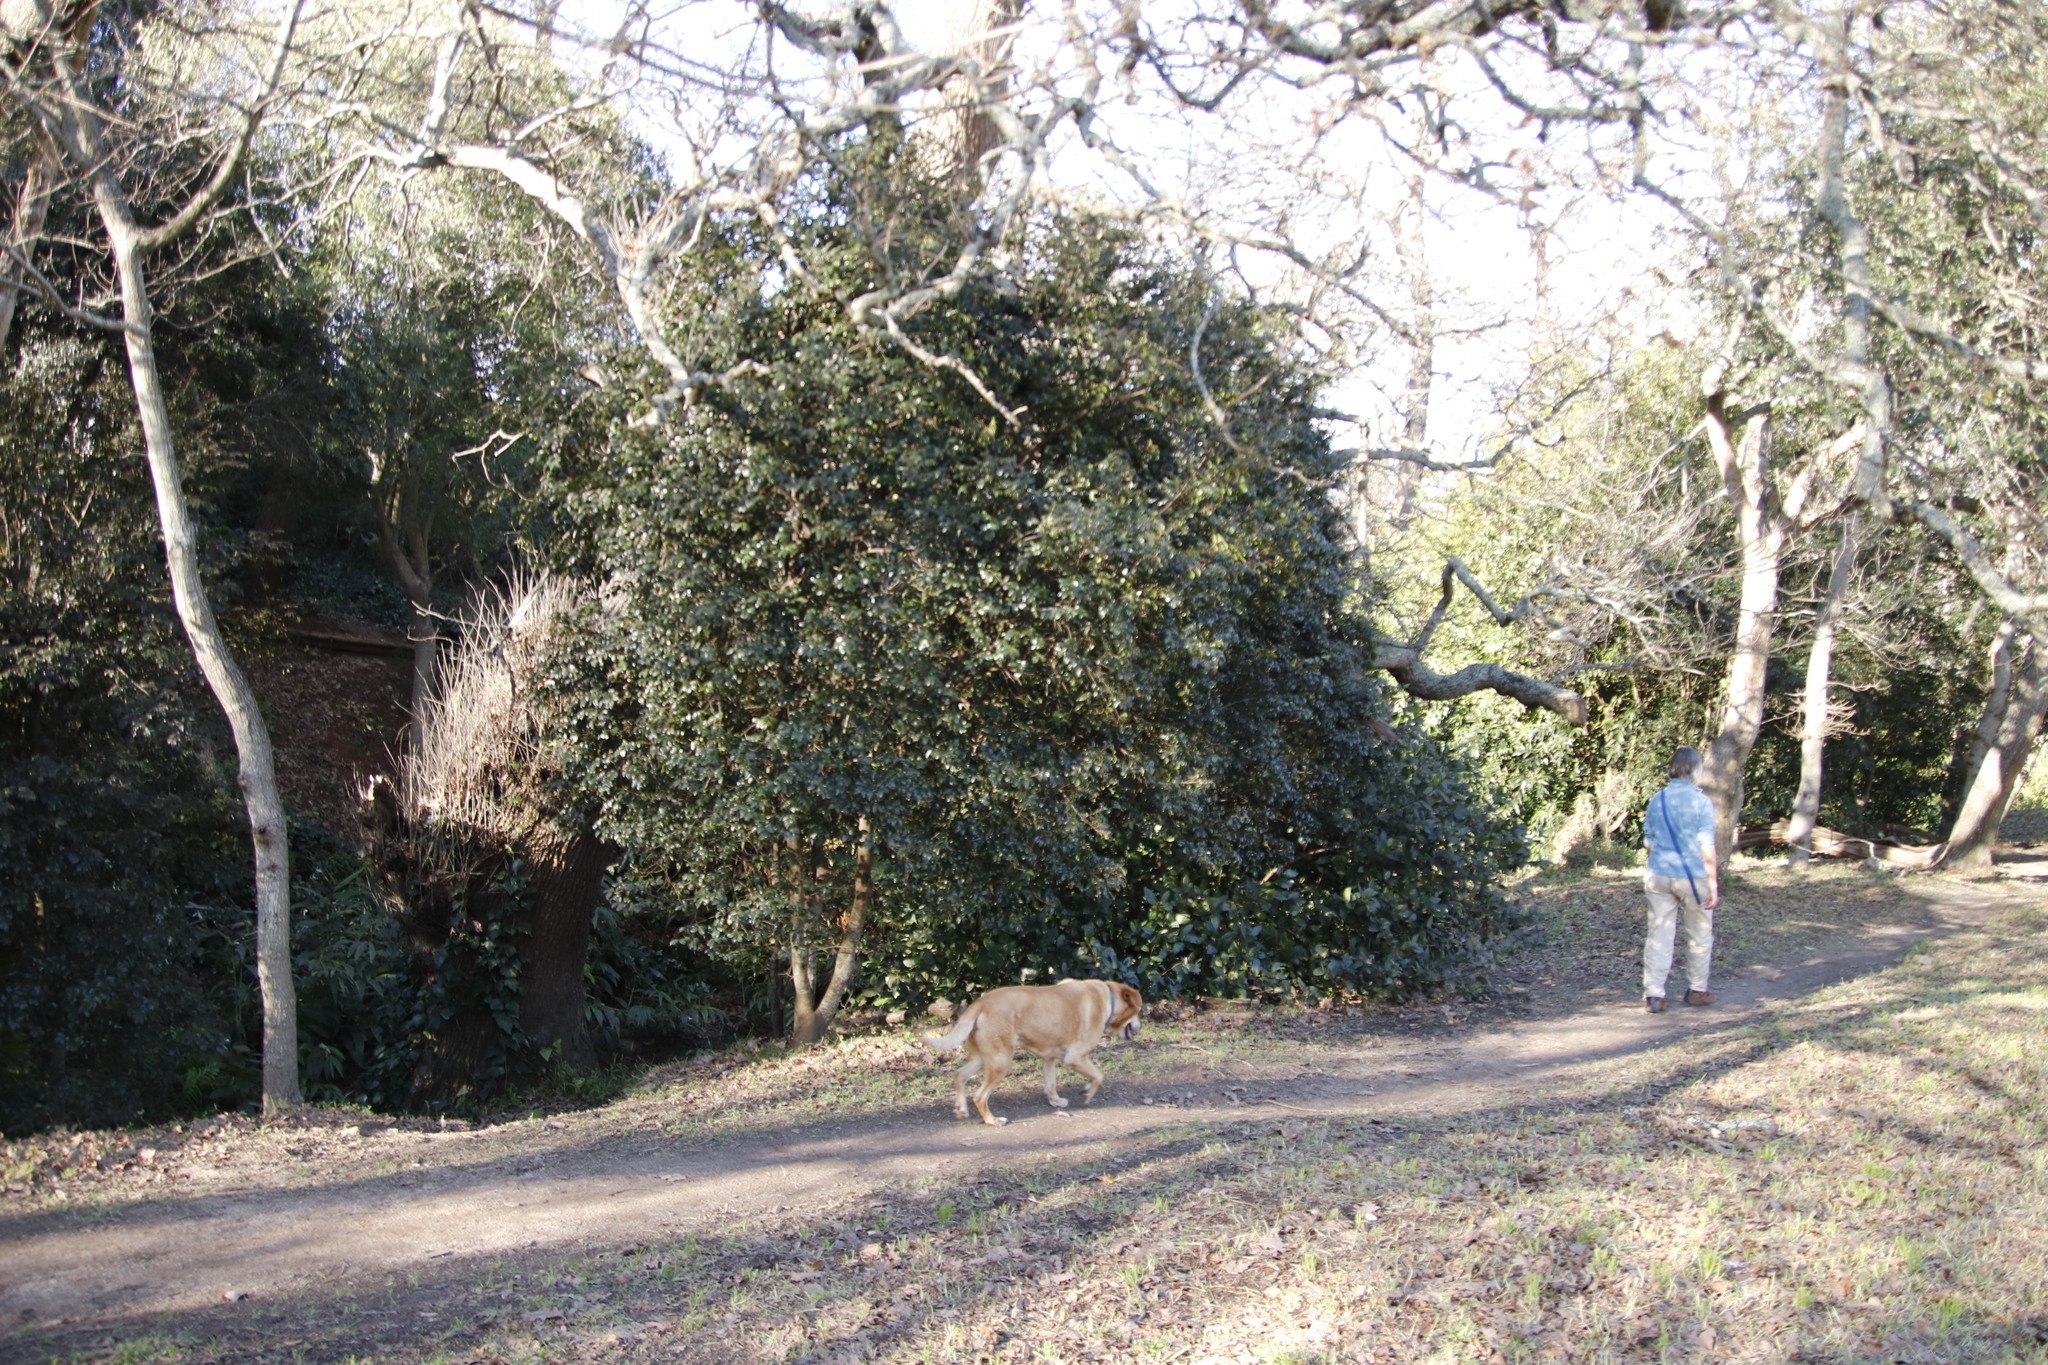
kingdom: Plantae
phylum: Tracheophyta
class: Magnoliopsida
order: Ericales
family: Ebenaceae
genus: Diospyros
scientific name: Diospyros whyteana
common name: Bladder-nut
